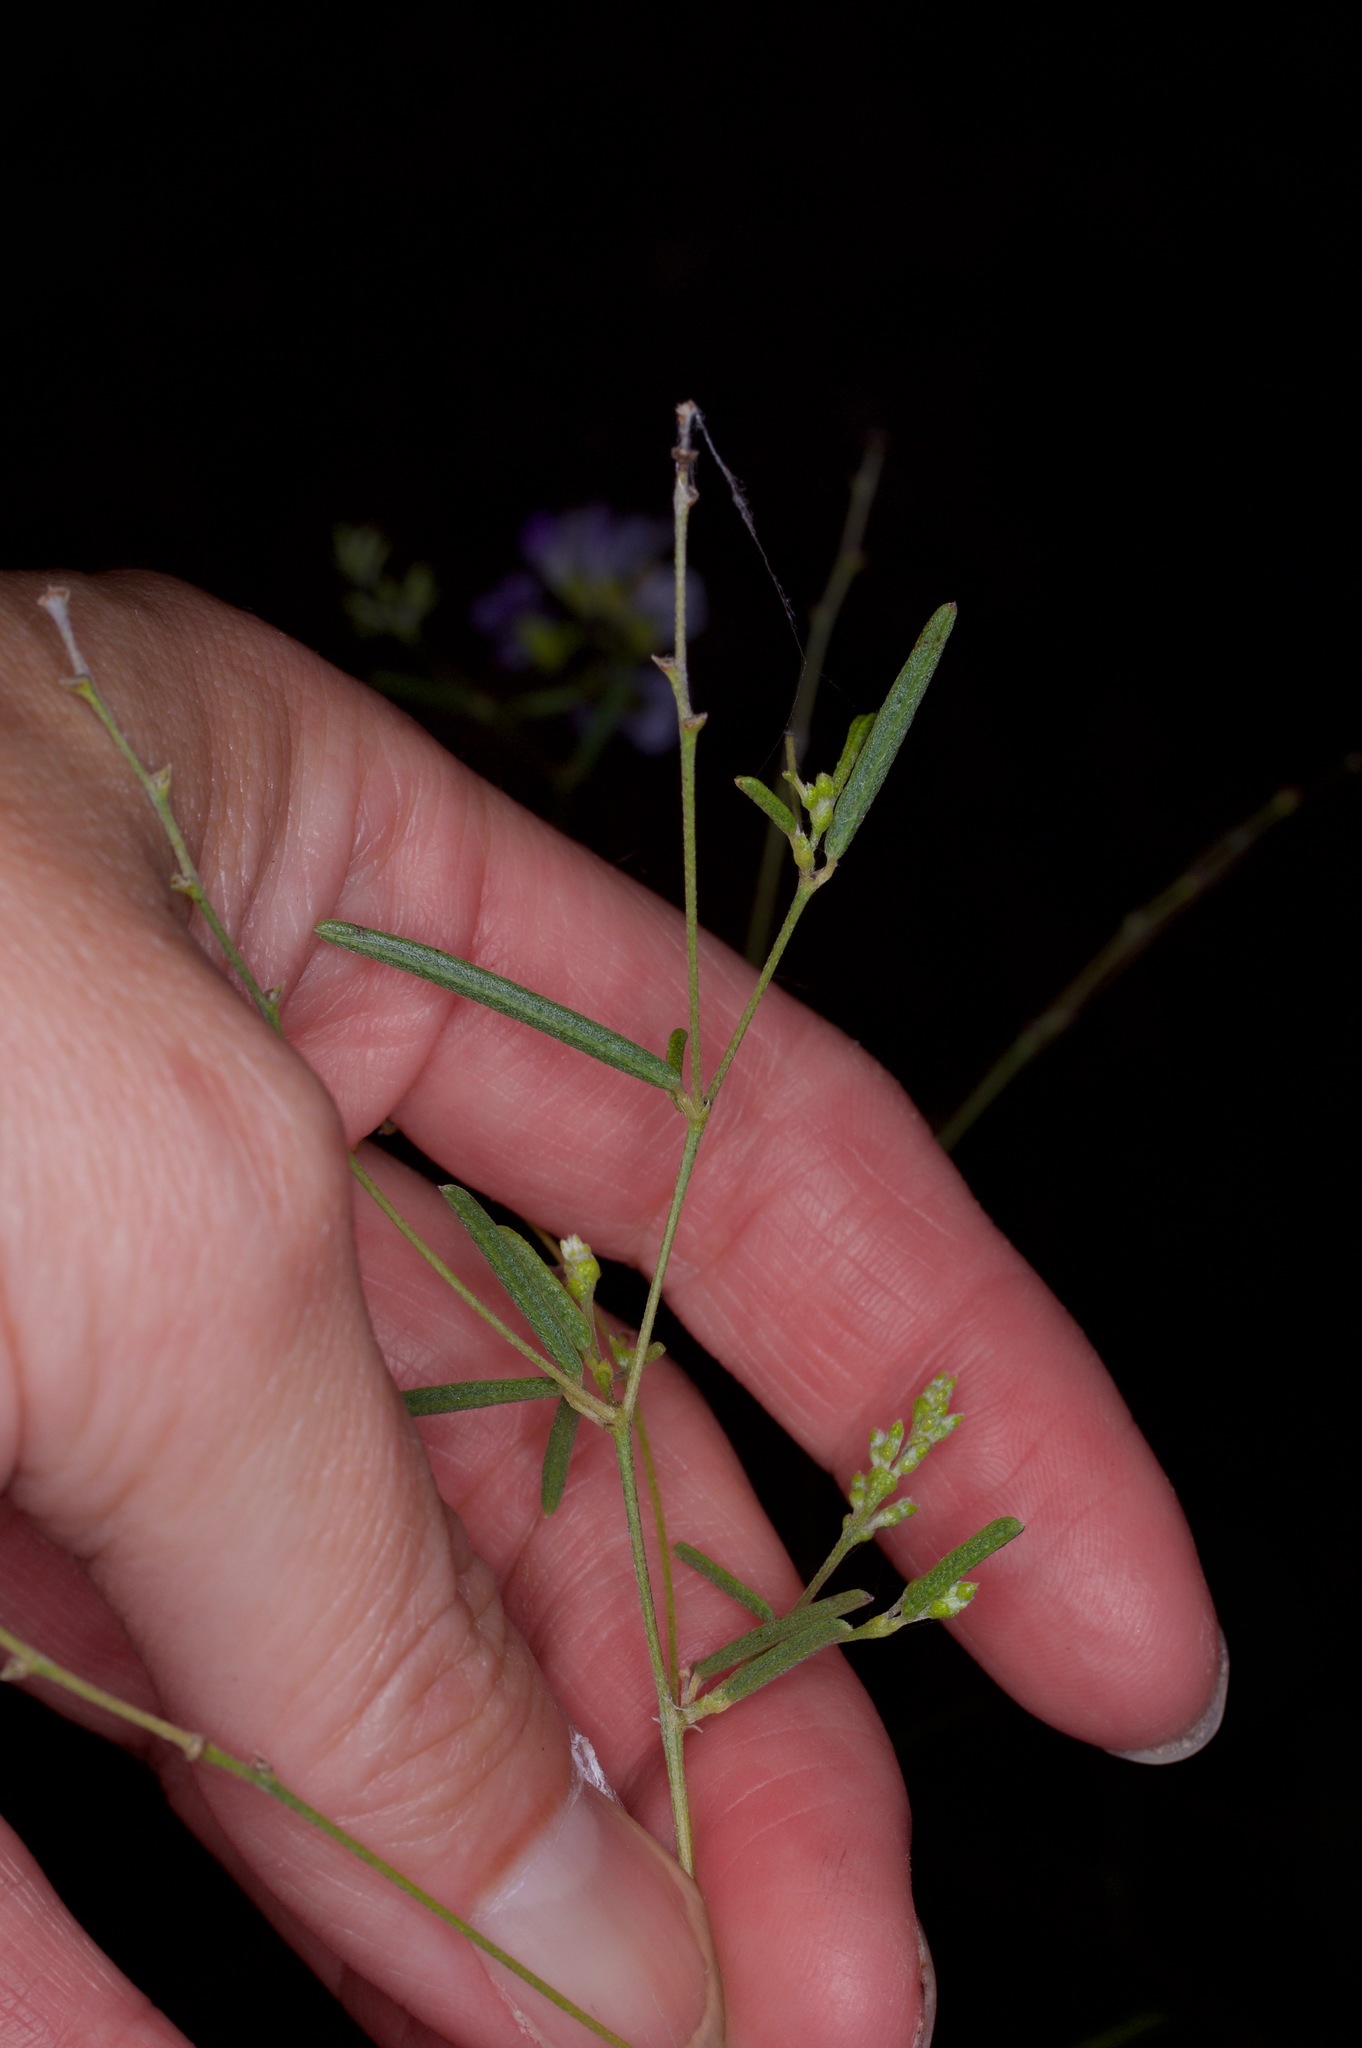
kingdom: Plantae
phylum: Tracheophyta
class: Magnoliopsida
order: Fabales
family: Fabaceae
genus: Pediomelum
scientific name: Pediomelum linearifolium
